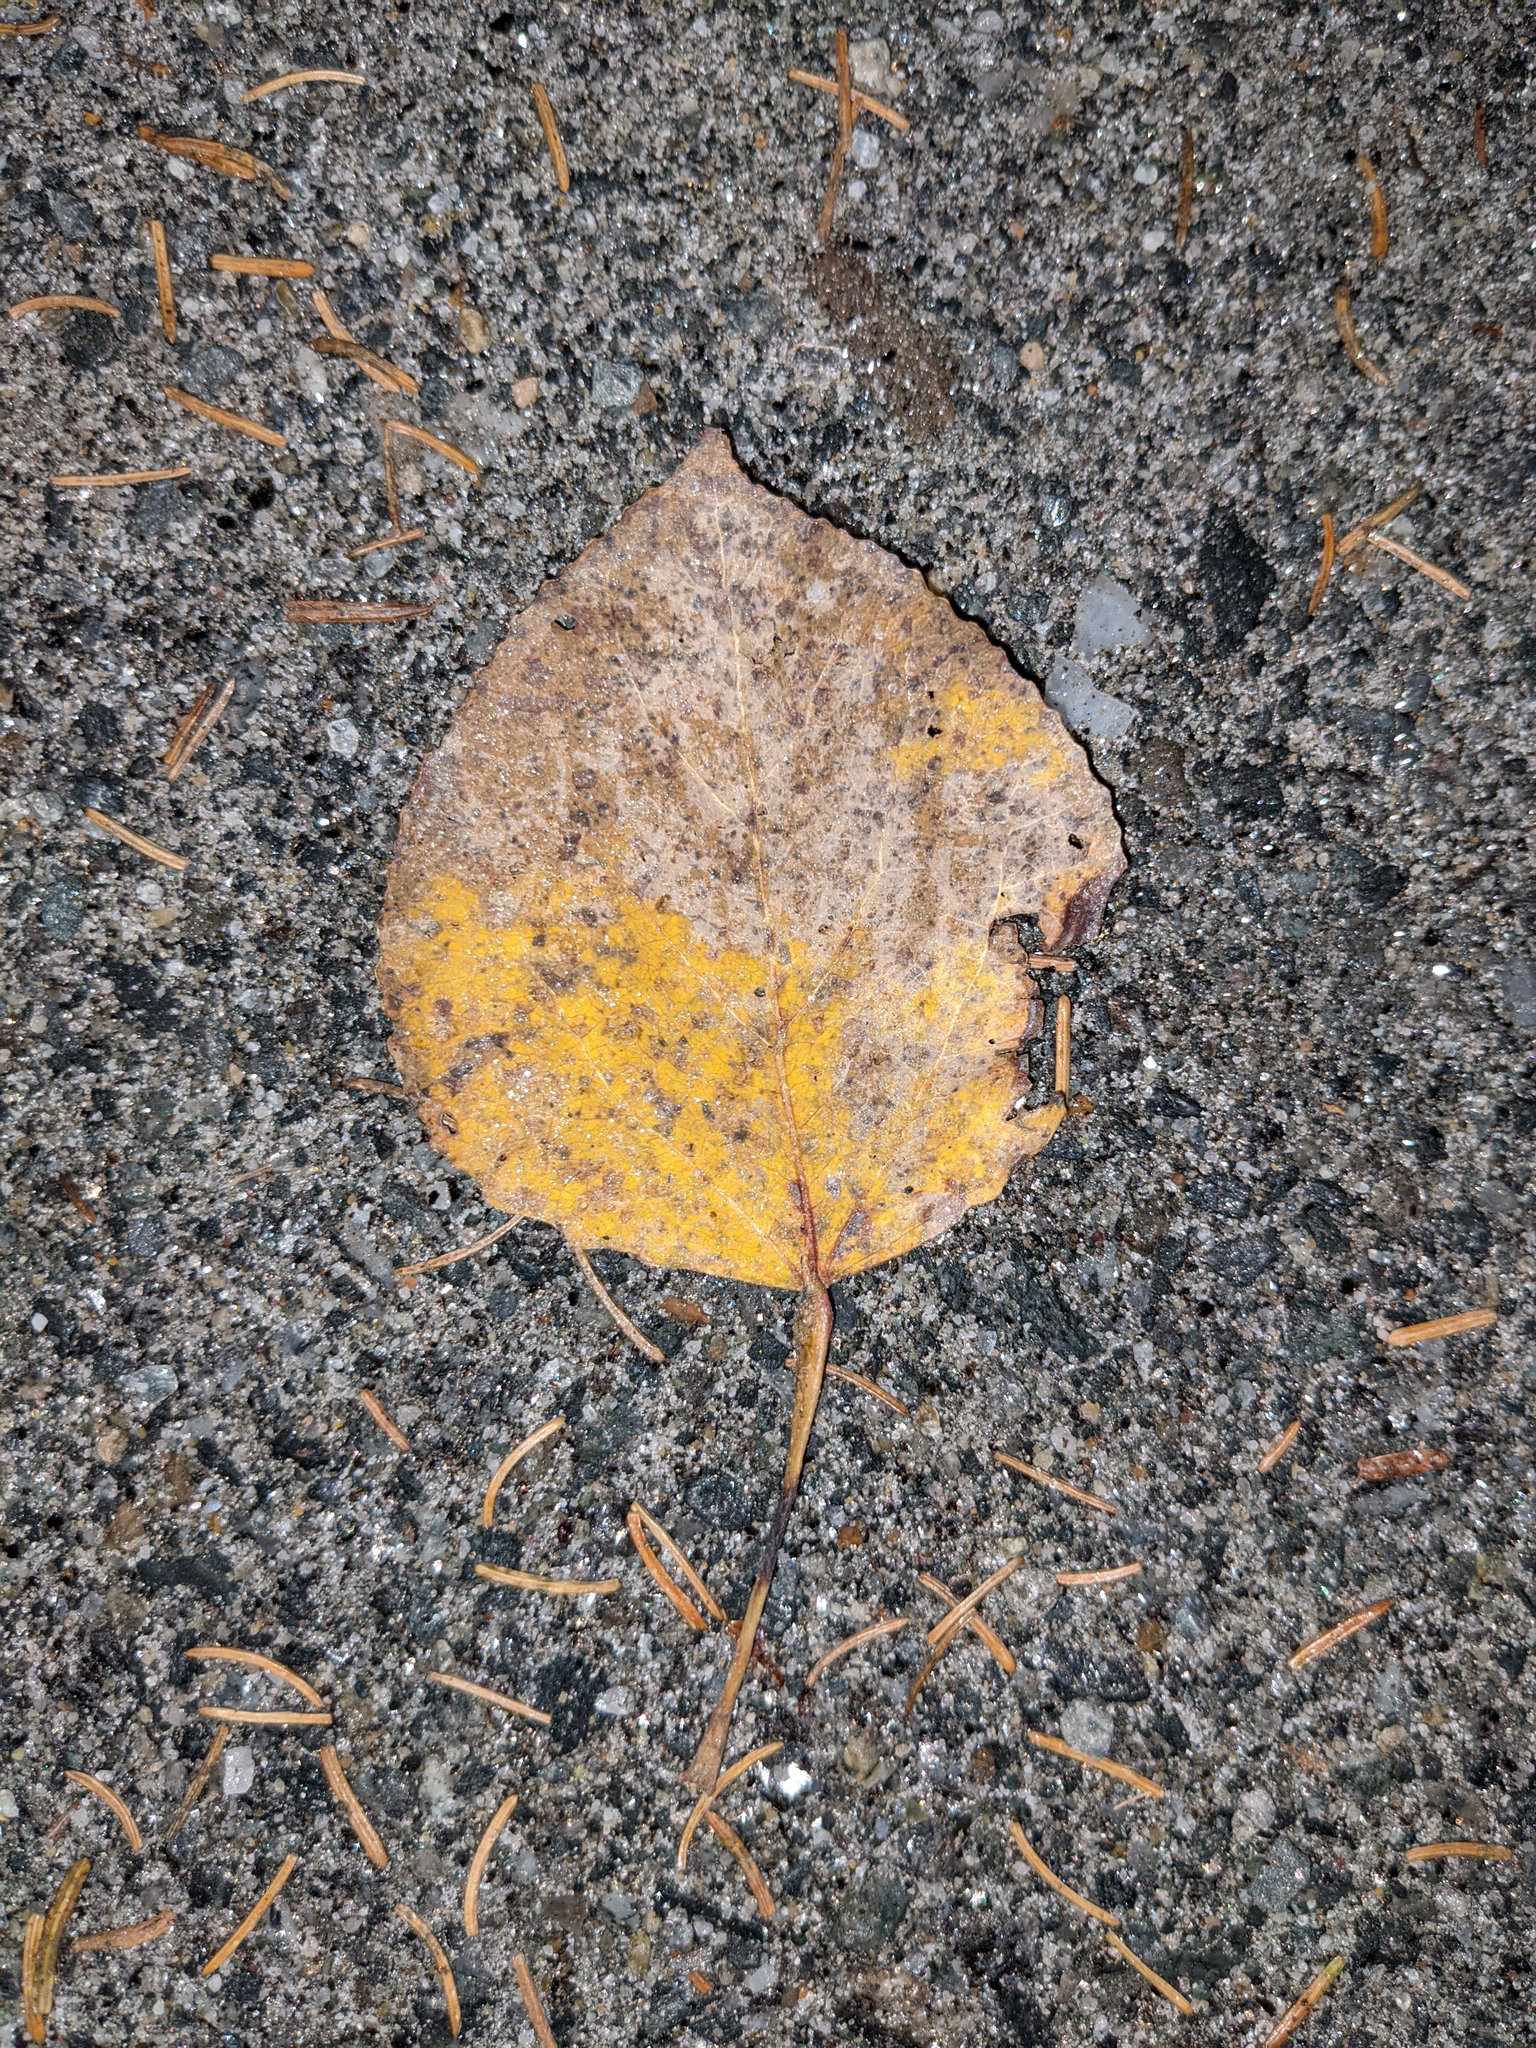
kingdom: Plantae
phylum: Tracheophyta
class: Magnoliopsida
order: Malpighiales
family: Salicaceae
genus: Populus
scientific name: Populus tremuloides
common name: Quaking aspen
